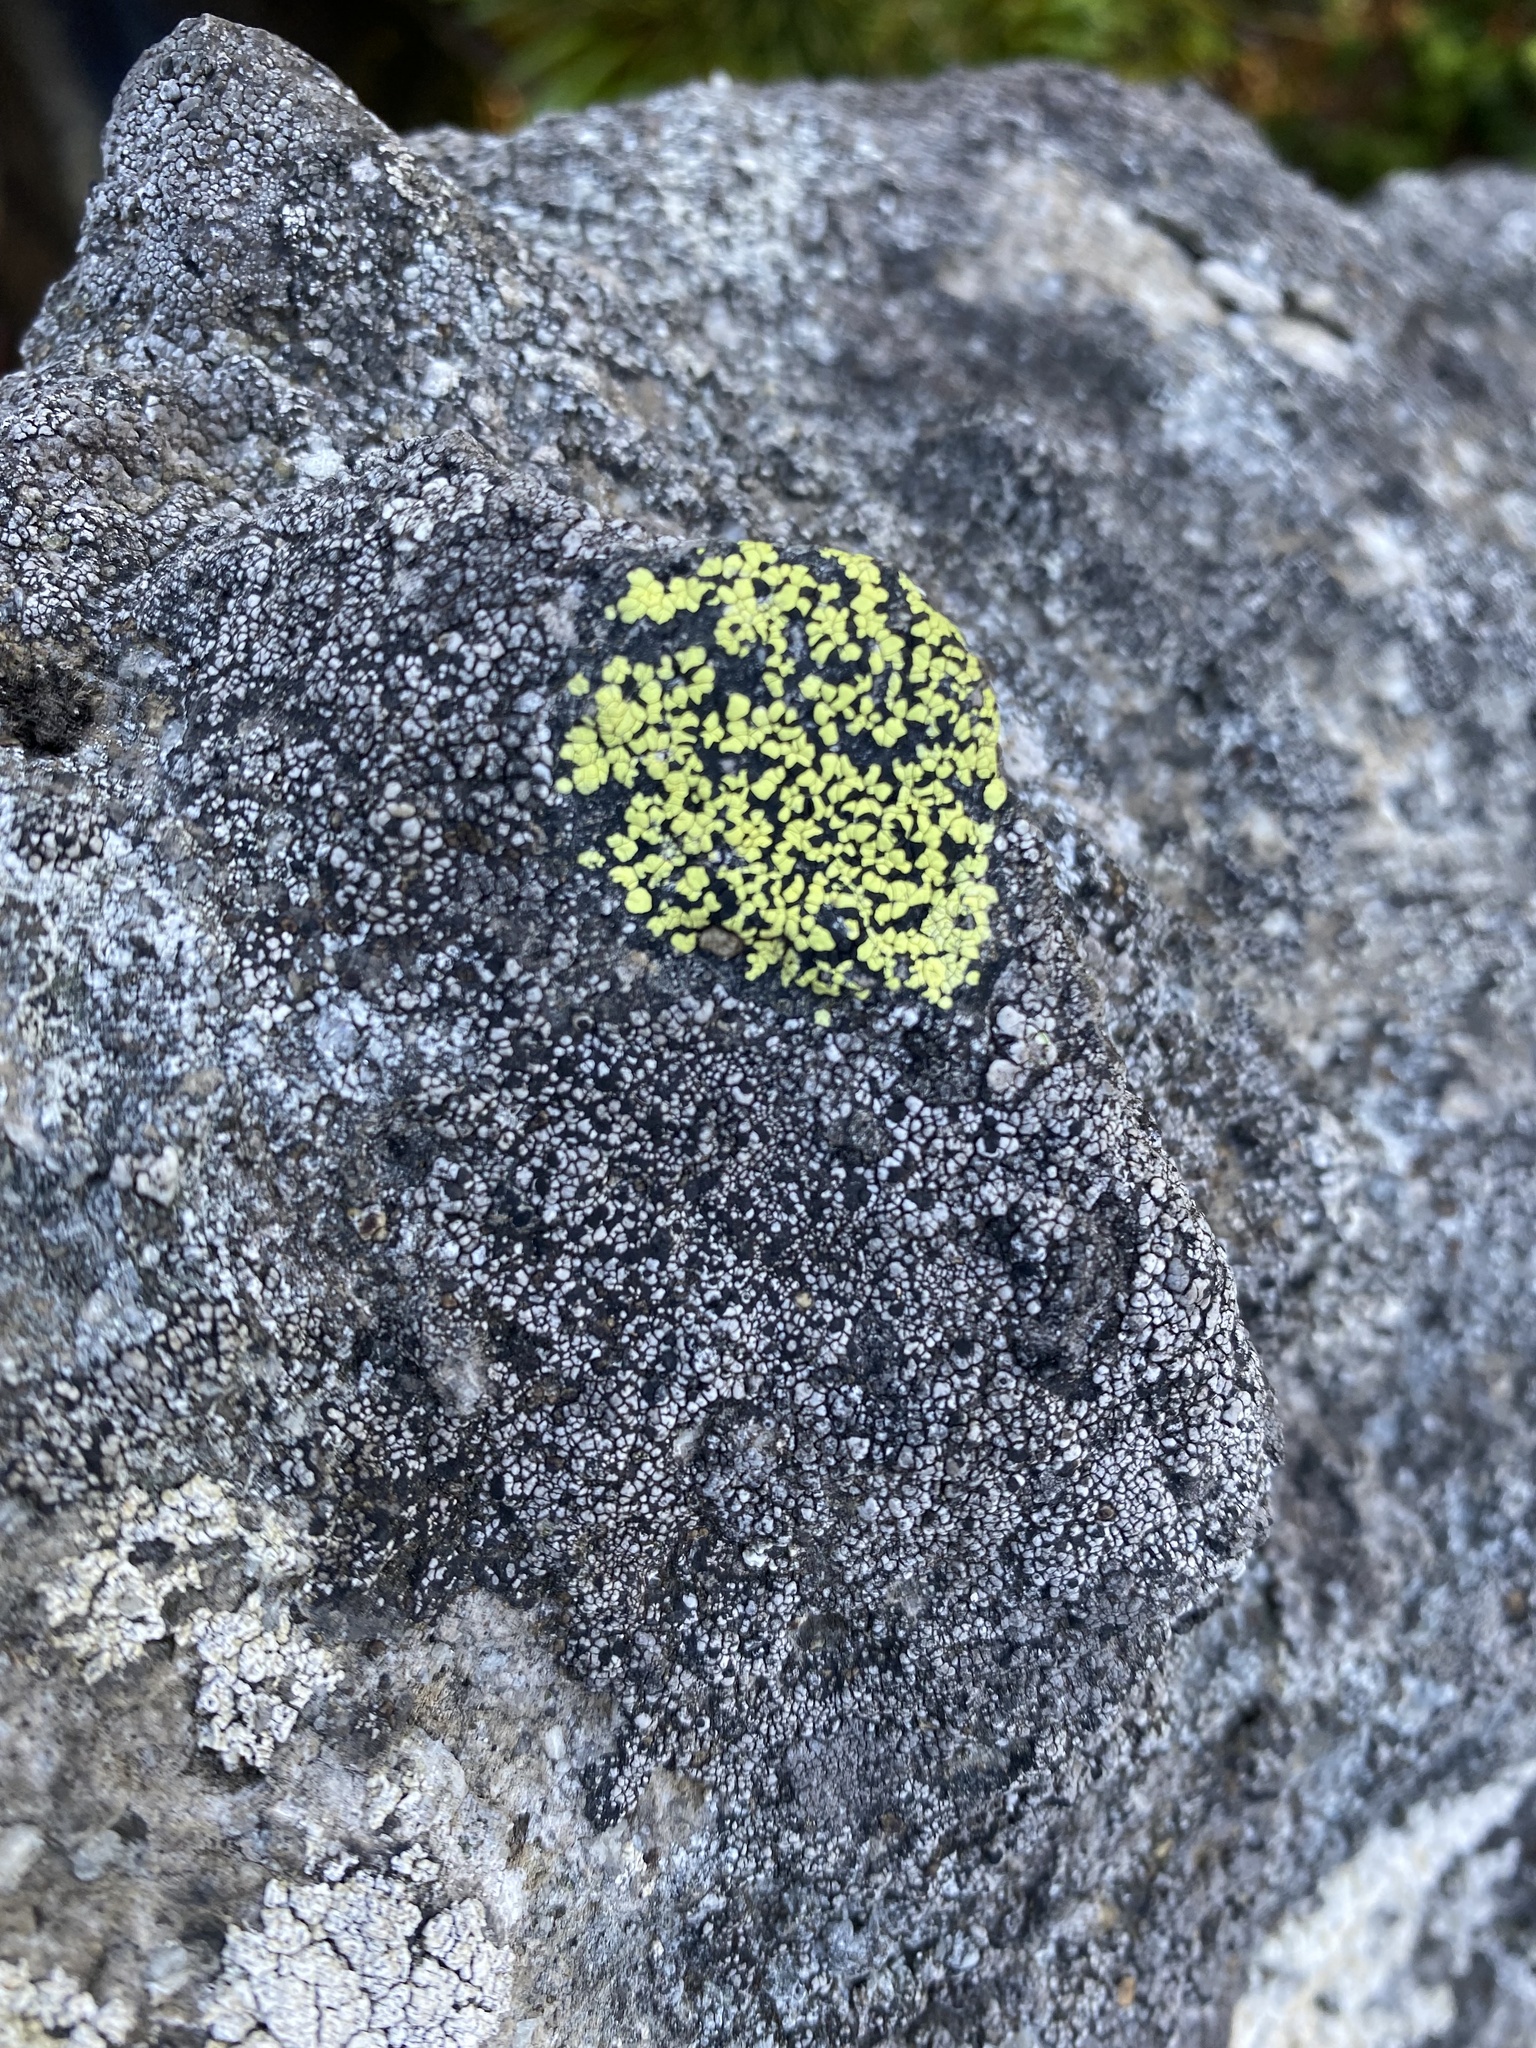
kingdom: Fungi
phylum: Ascomycota
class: Lecanoromycetes
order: Rhizocarpales
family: Rhizocarpaceae
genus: Rhizocarpon
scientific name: Rhizocarpon
